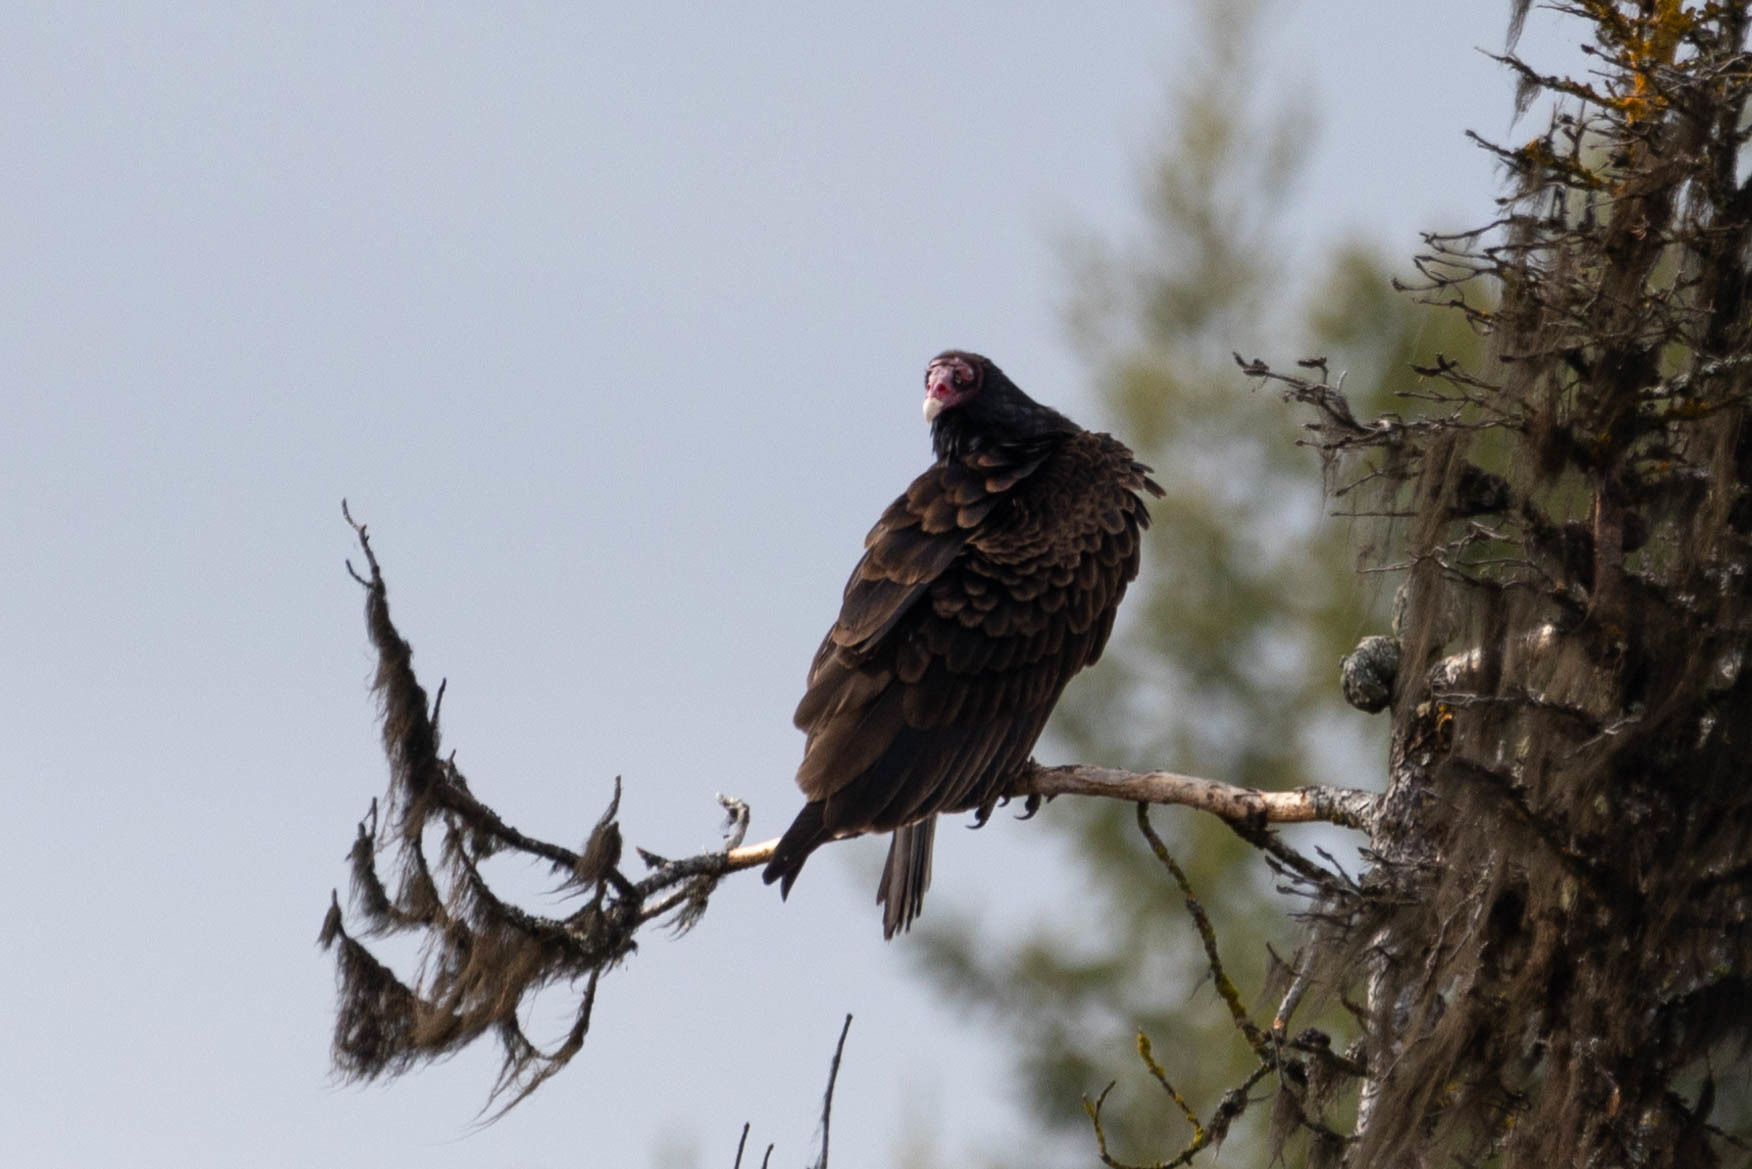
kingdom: Animalia
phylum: Chordata
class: Aves
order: Accipitriformes
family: Cathartidae
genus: Cathartes
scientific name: Cathartes aura
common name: Turkey vulture
